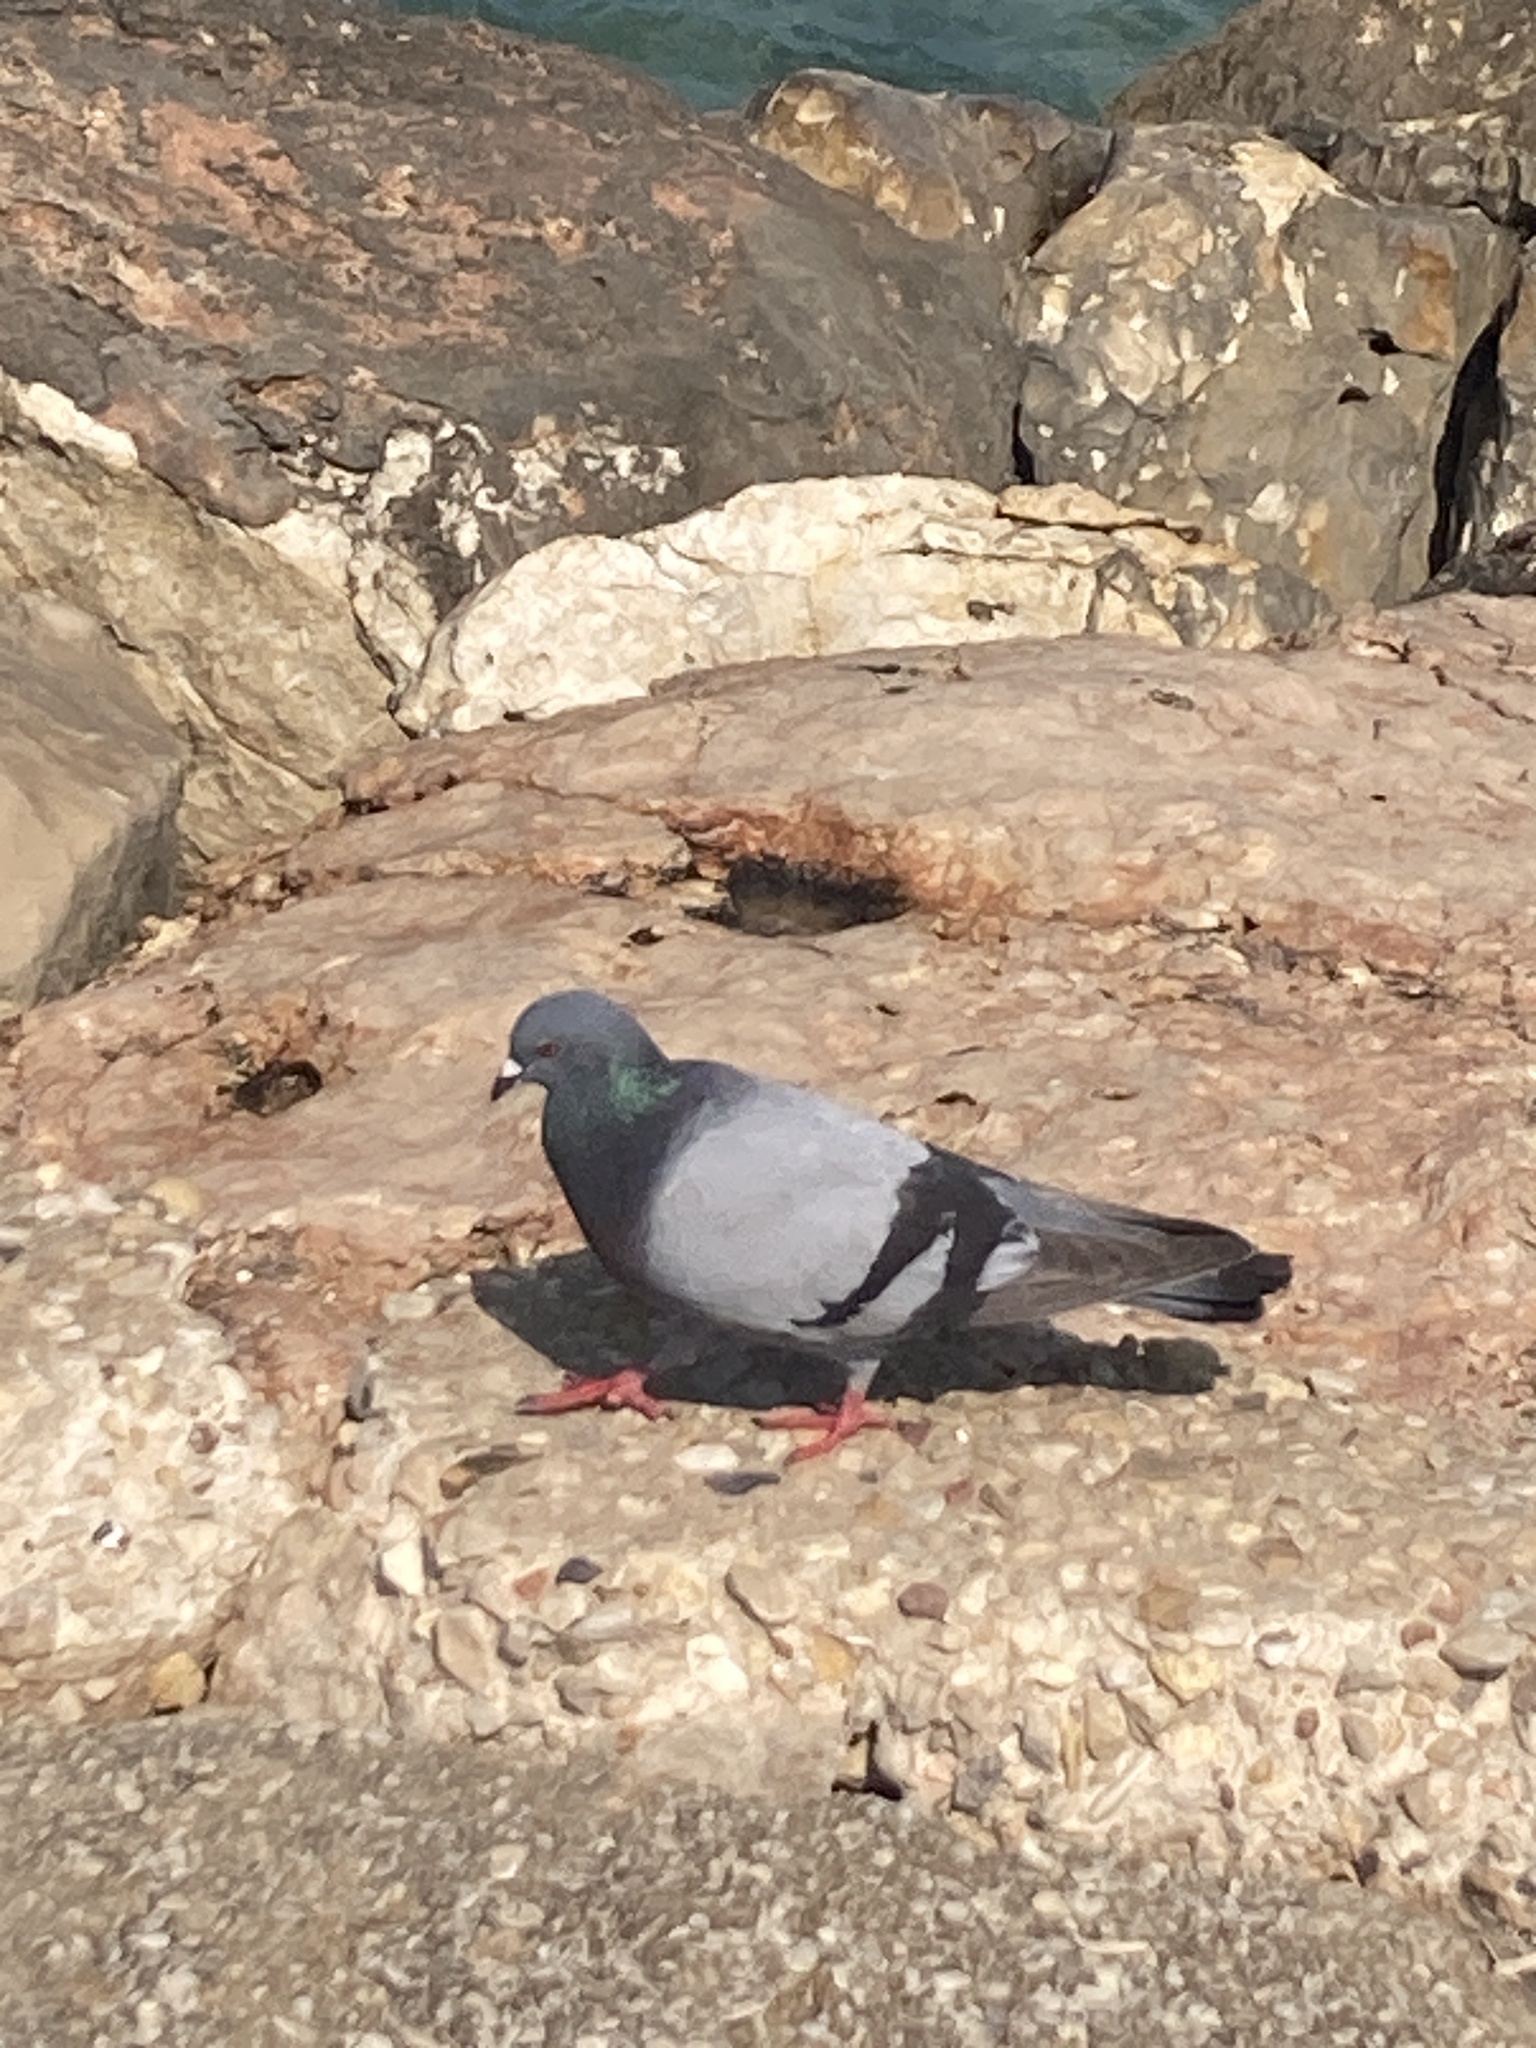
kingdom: Animalia
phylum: Chordata
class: Aves
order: Columbiformes
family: Columbidae
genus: Columba
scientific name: Columba livia
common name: Rock pigeon
